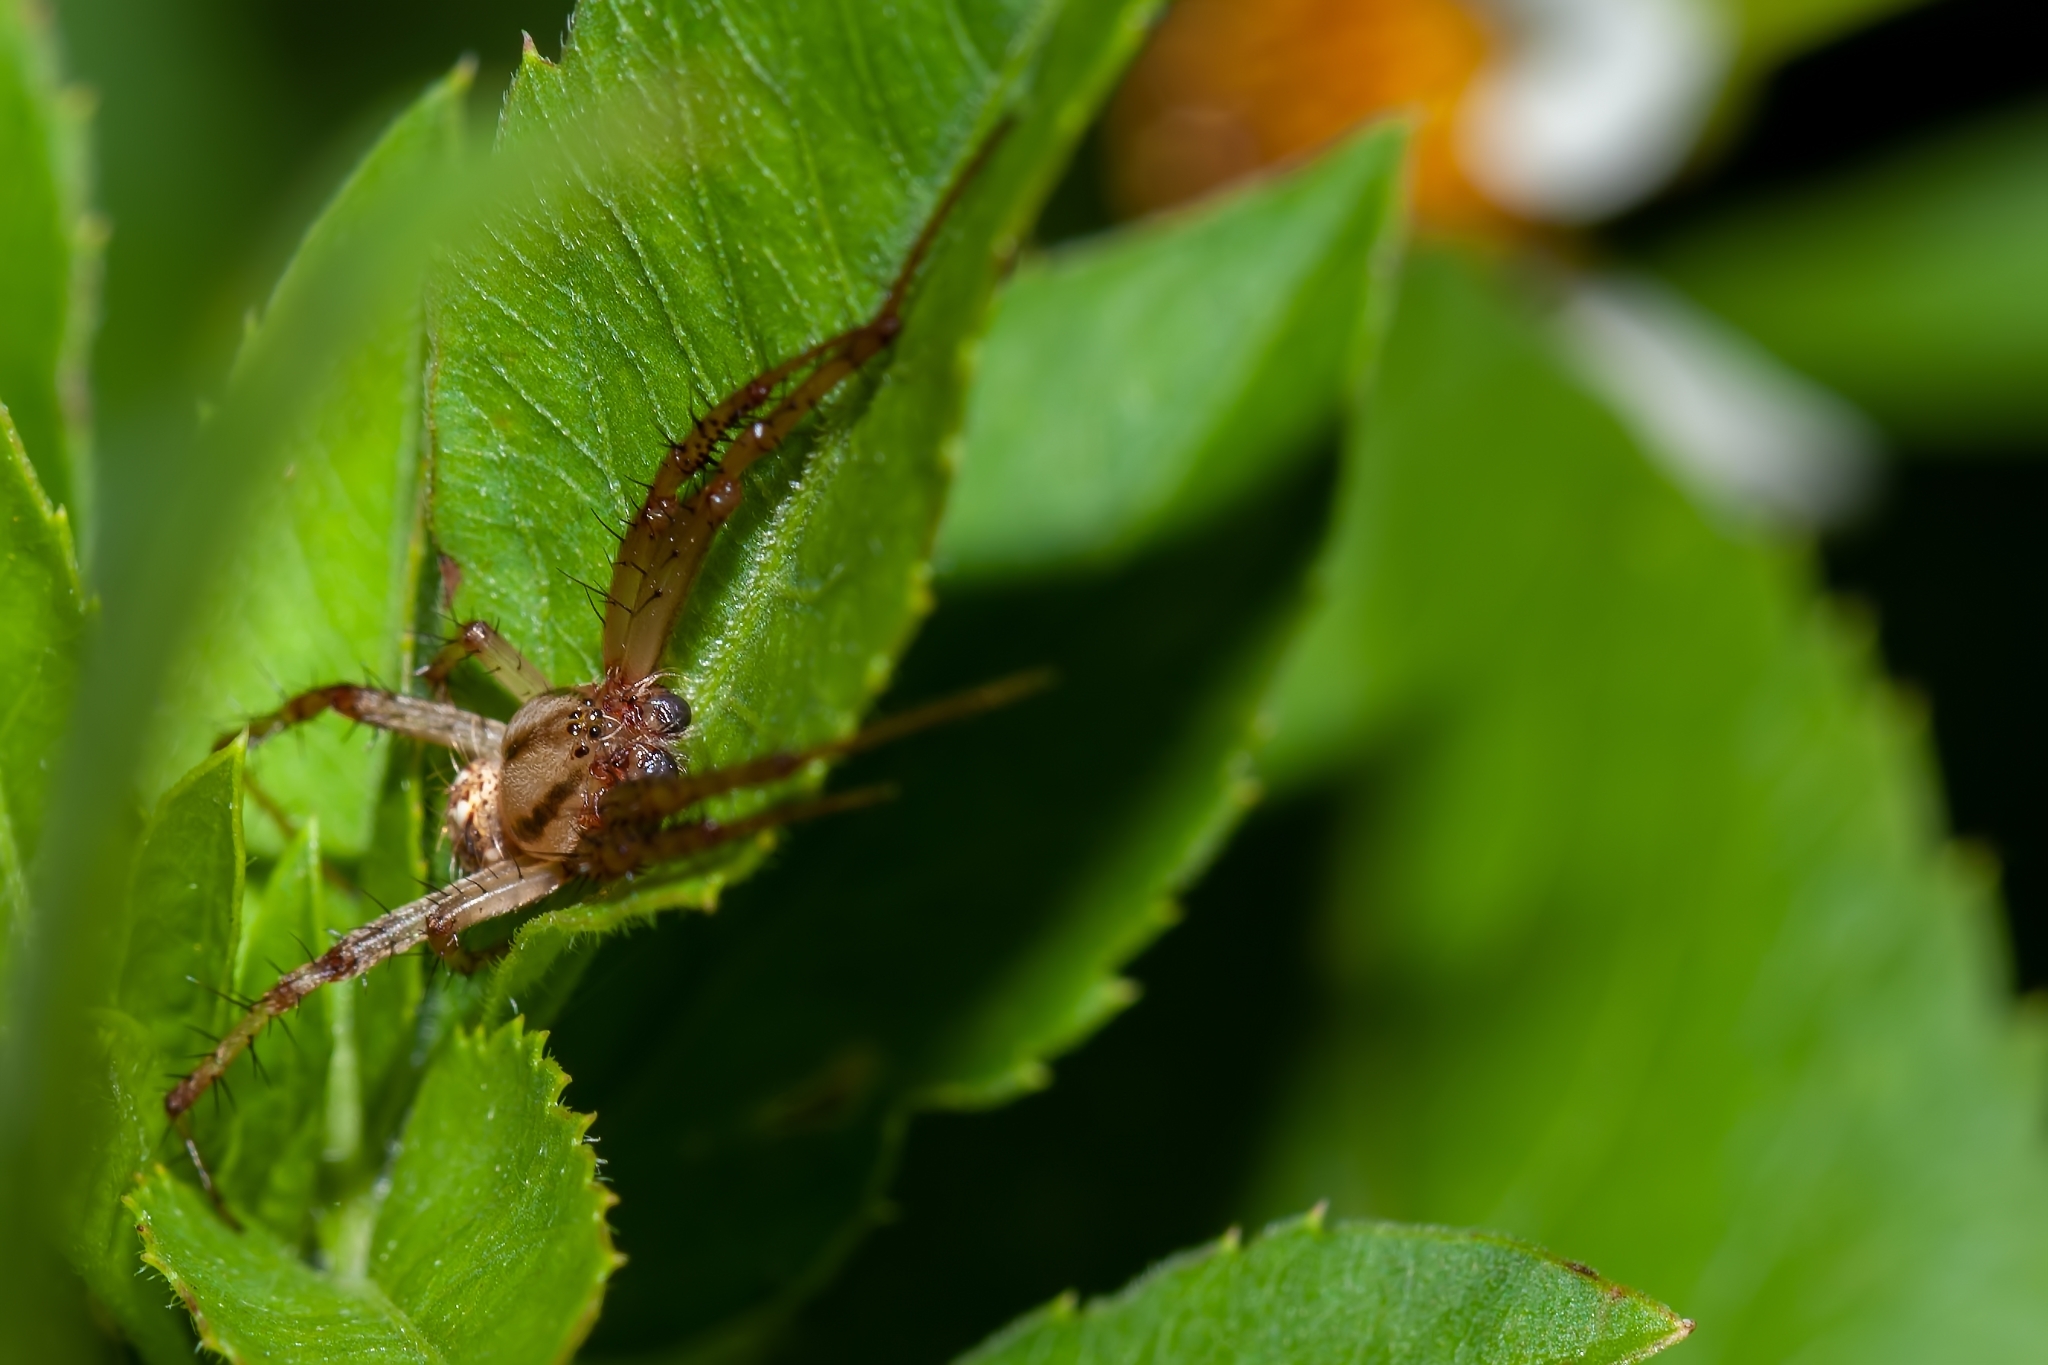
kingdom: Animalia
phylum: Arthropoda
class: Arachnida
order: Araneae
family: Araneidae
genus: Neoscona
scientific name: Neoscona arabesca
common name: Orb weavers
